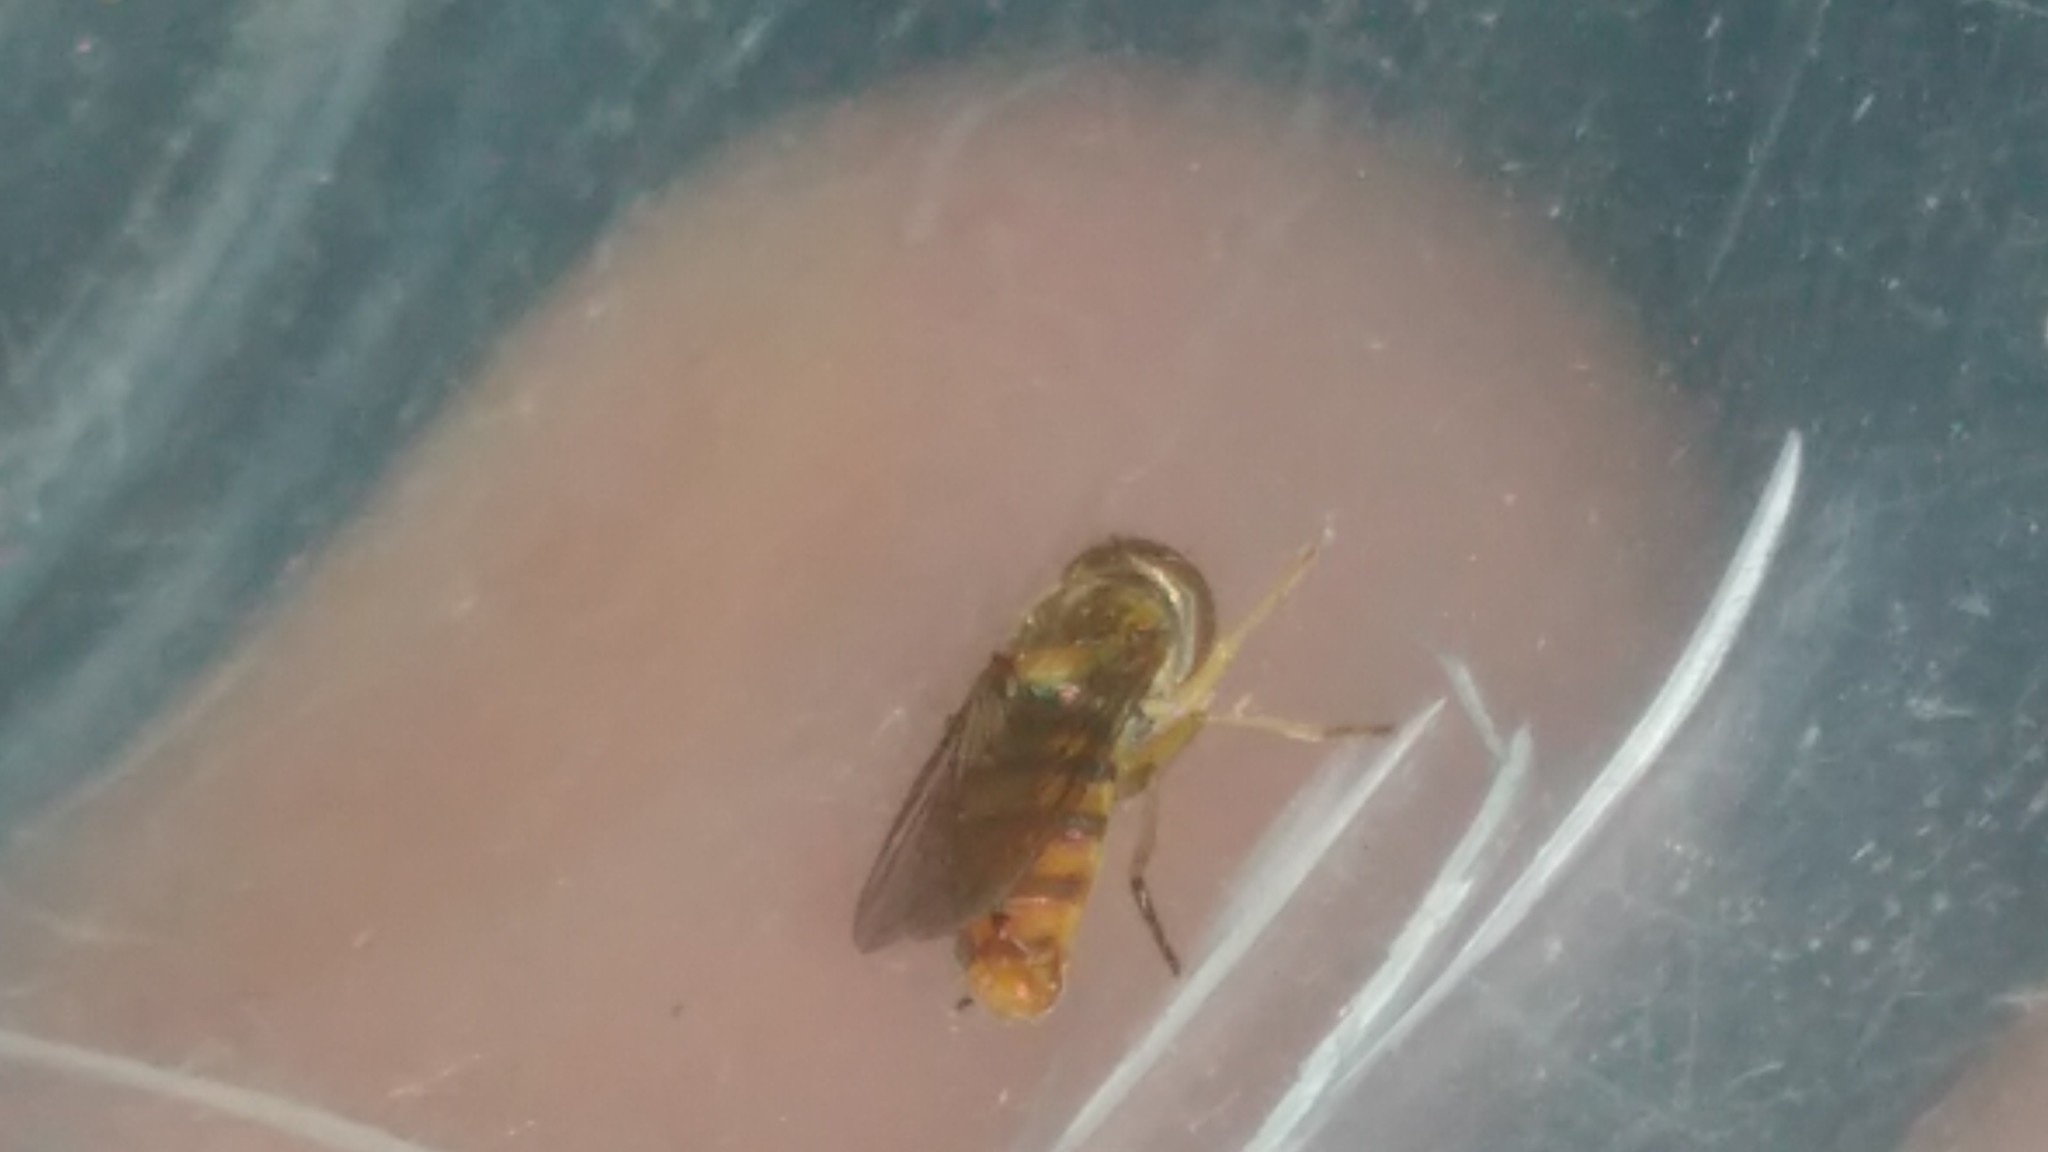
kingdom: Animalia
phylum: Arthropoda
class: Insecta
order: Diptera
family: Syrphidae
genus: Toxomerus
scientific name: Toxomerus
